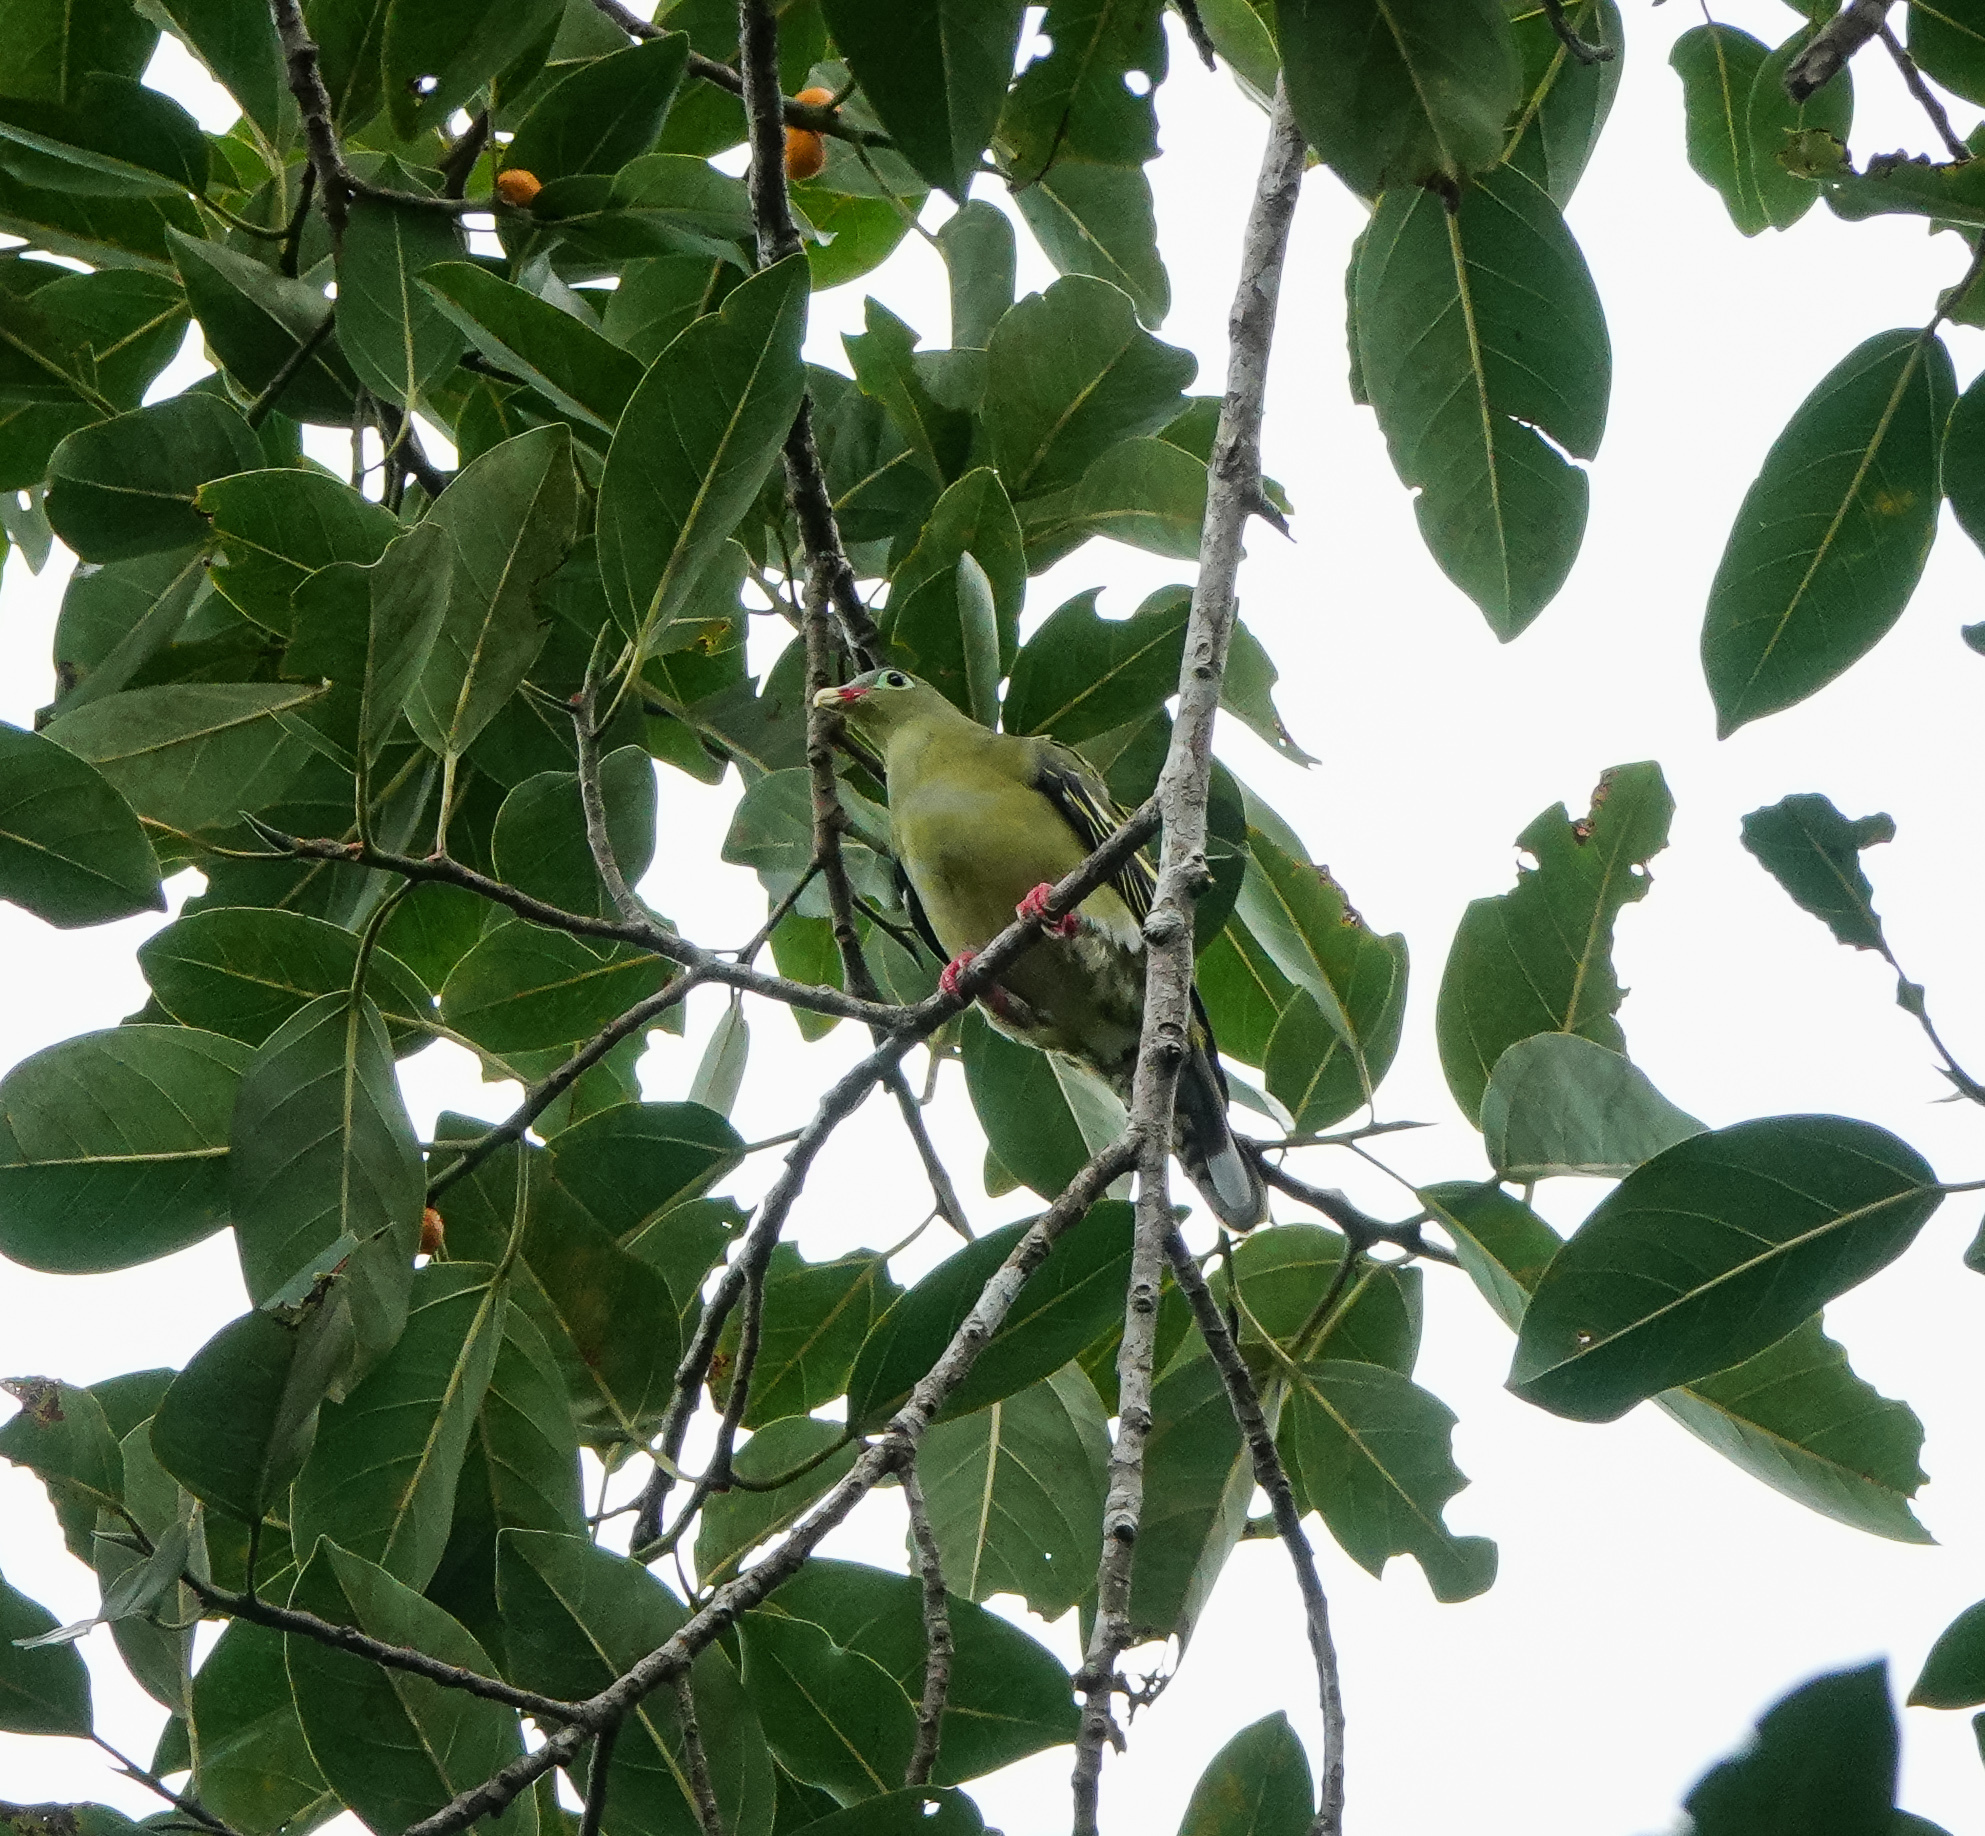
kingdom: Animalia
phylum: Chordata
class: Aves
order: Columbiformes
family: Columbidae
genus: Treron
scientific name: Treron curvirostra
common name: Thick-billed green pigeon
